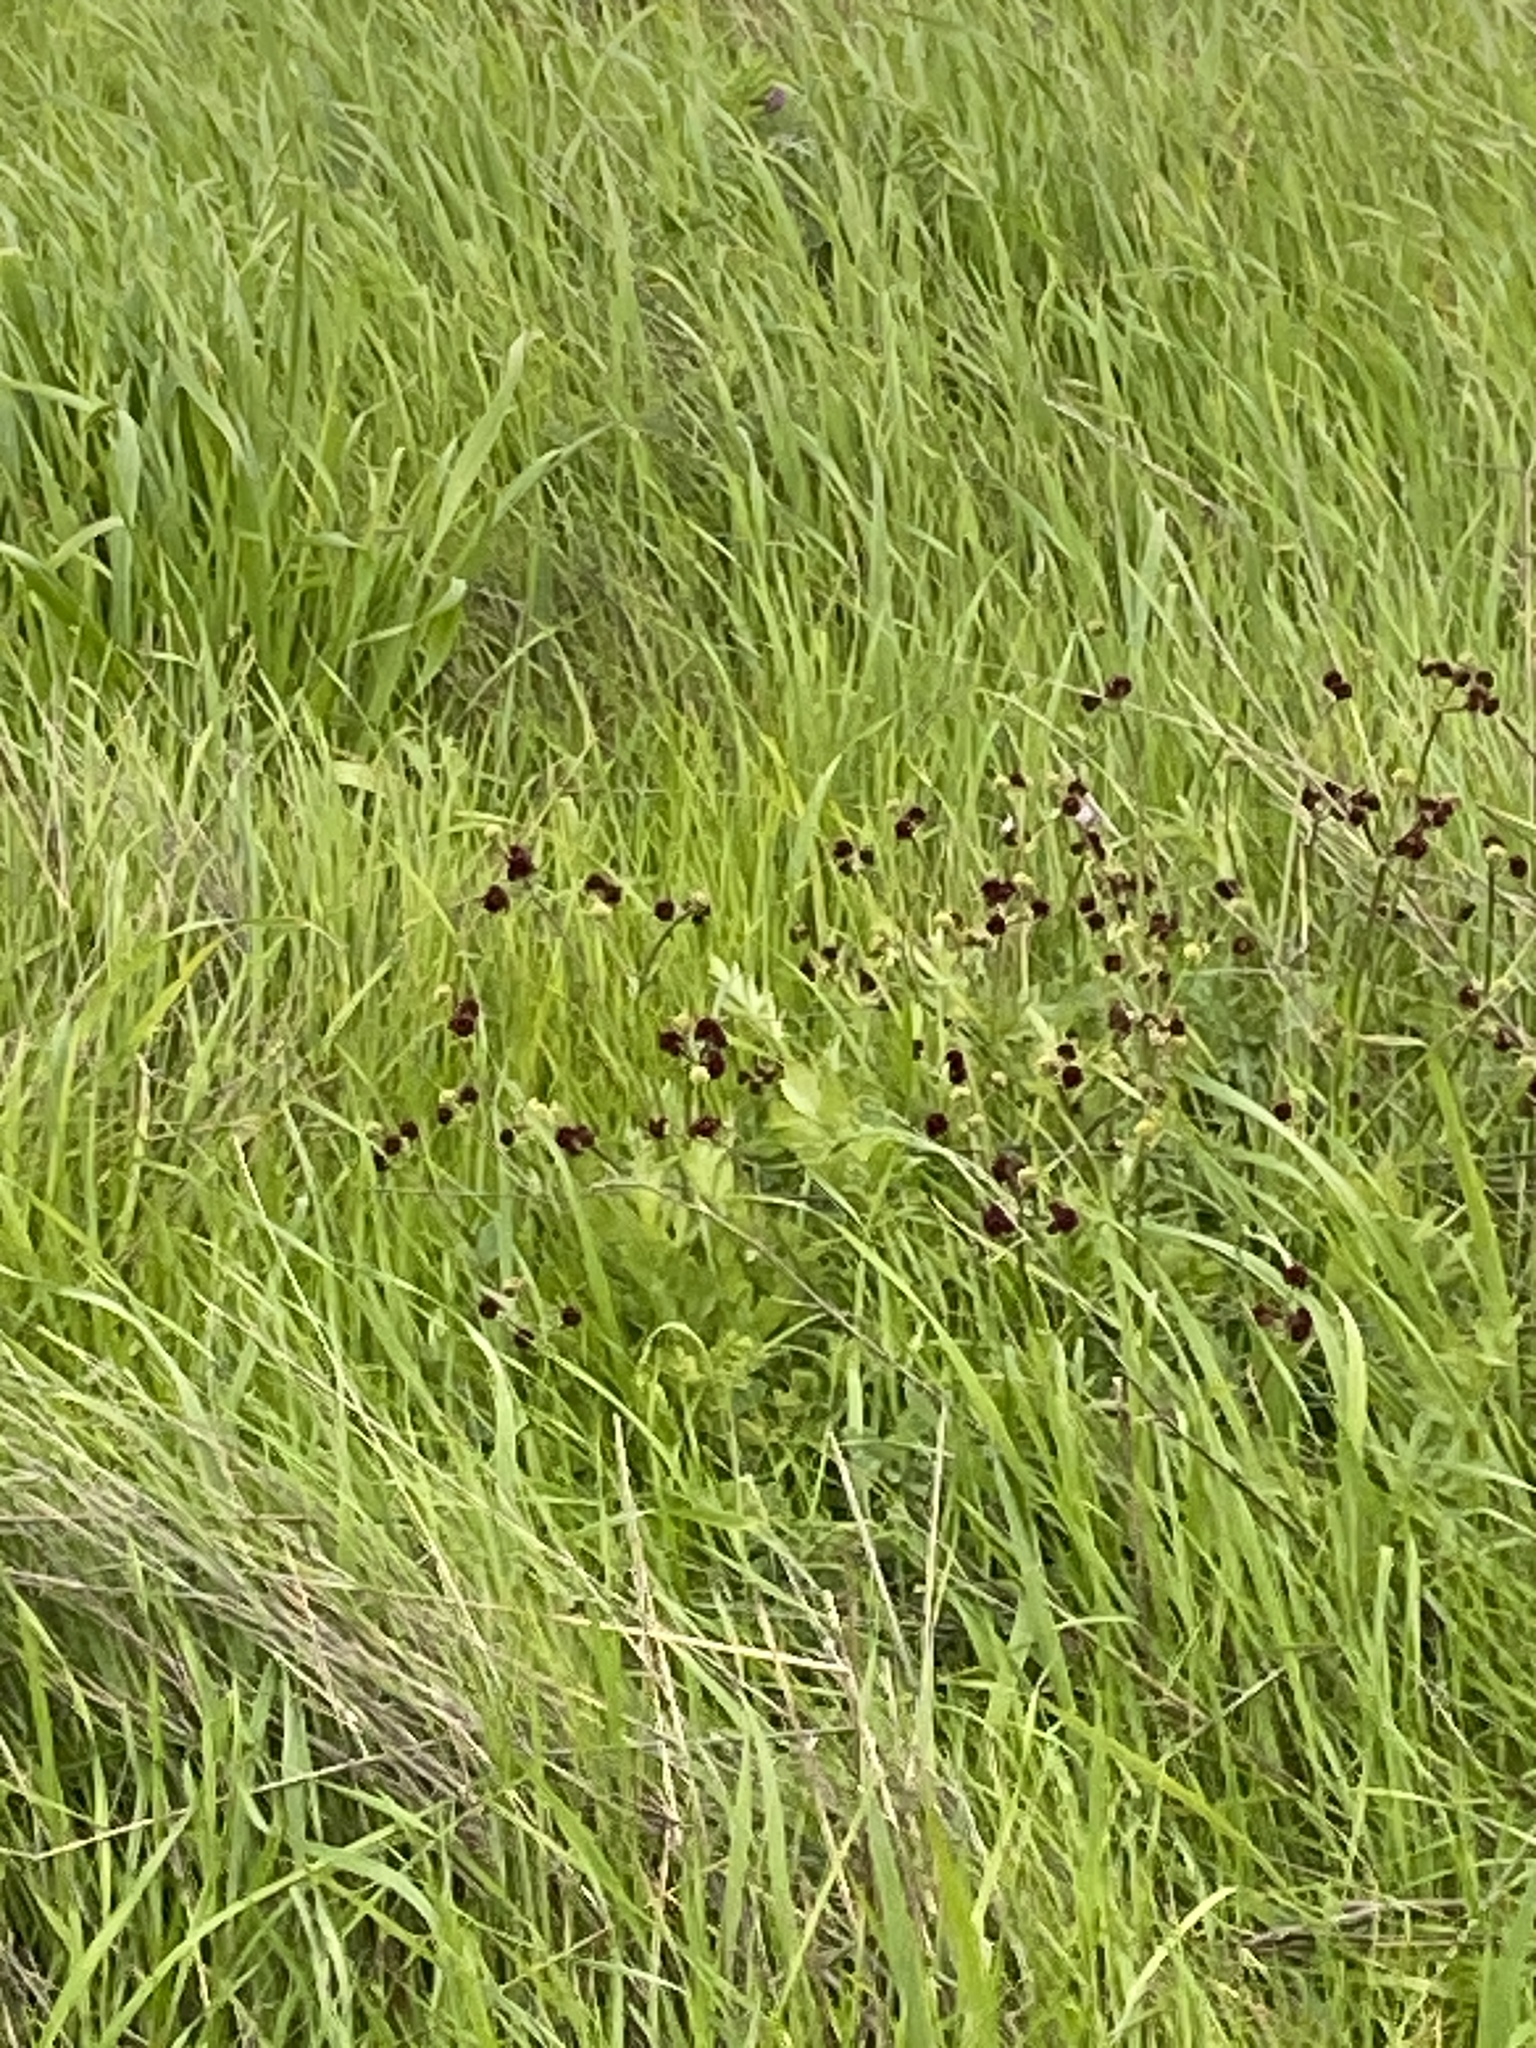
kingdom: Plantae
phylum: Tracheophyta
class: Magnoliopsida
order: Apiales
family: Apiaceae
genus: Sanicula
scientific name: Sanicula bipinnatifida
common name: Shoe-buttons
